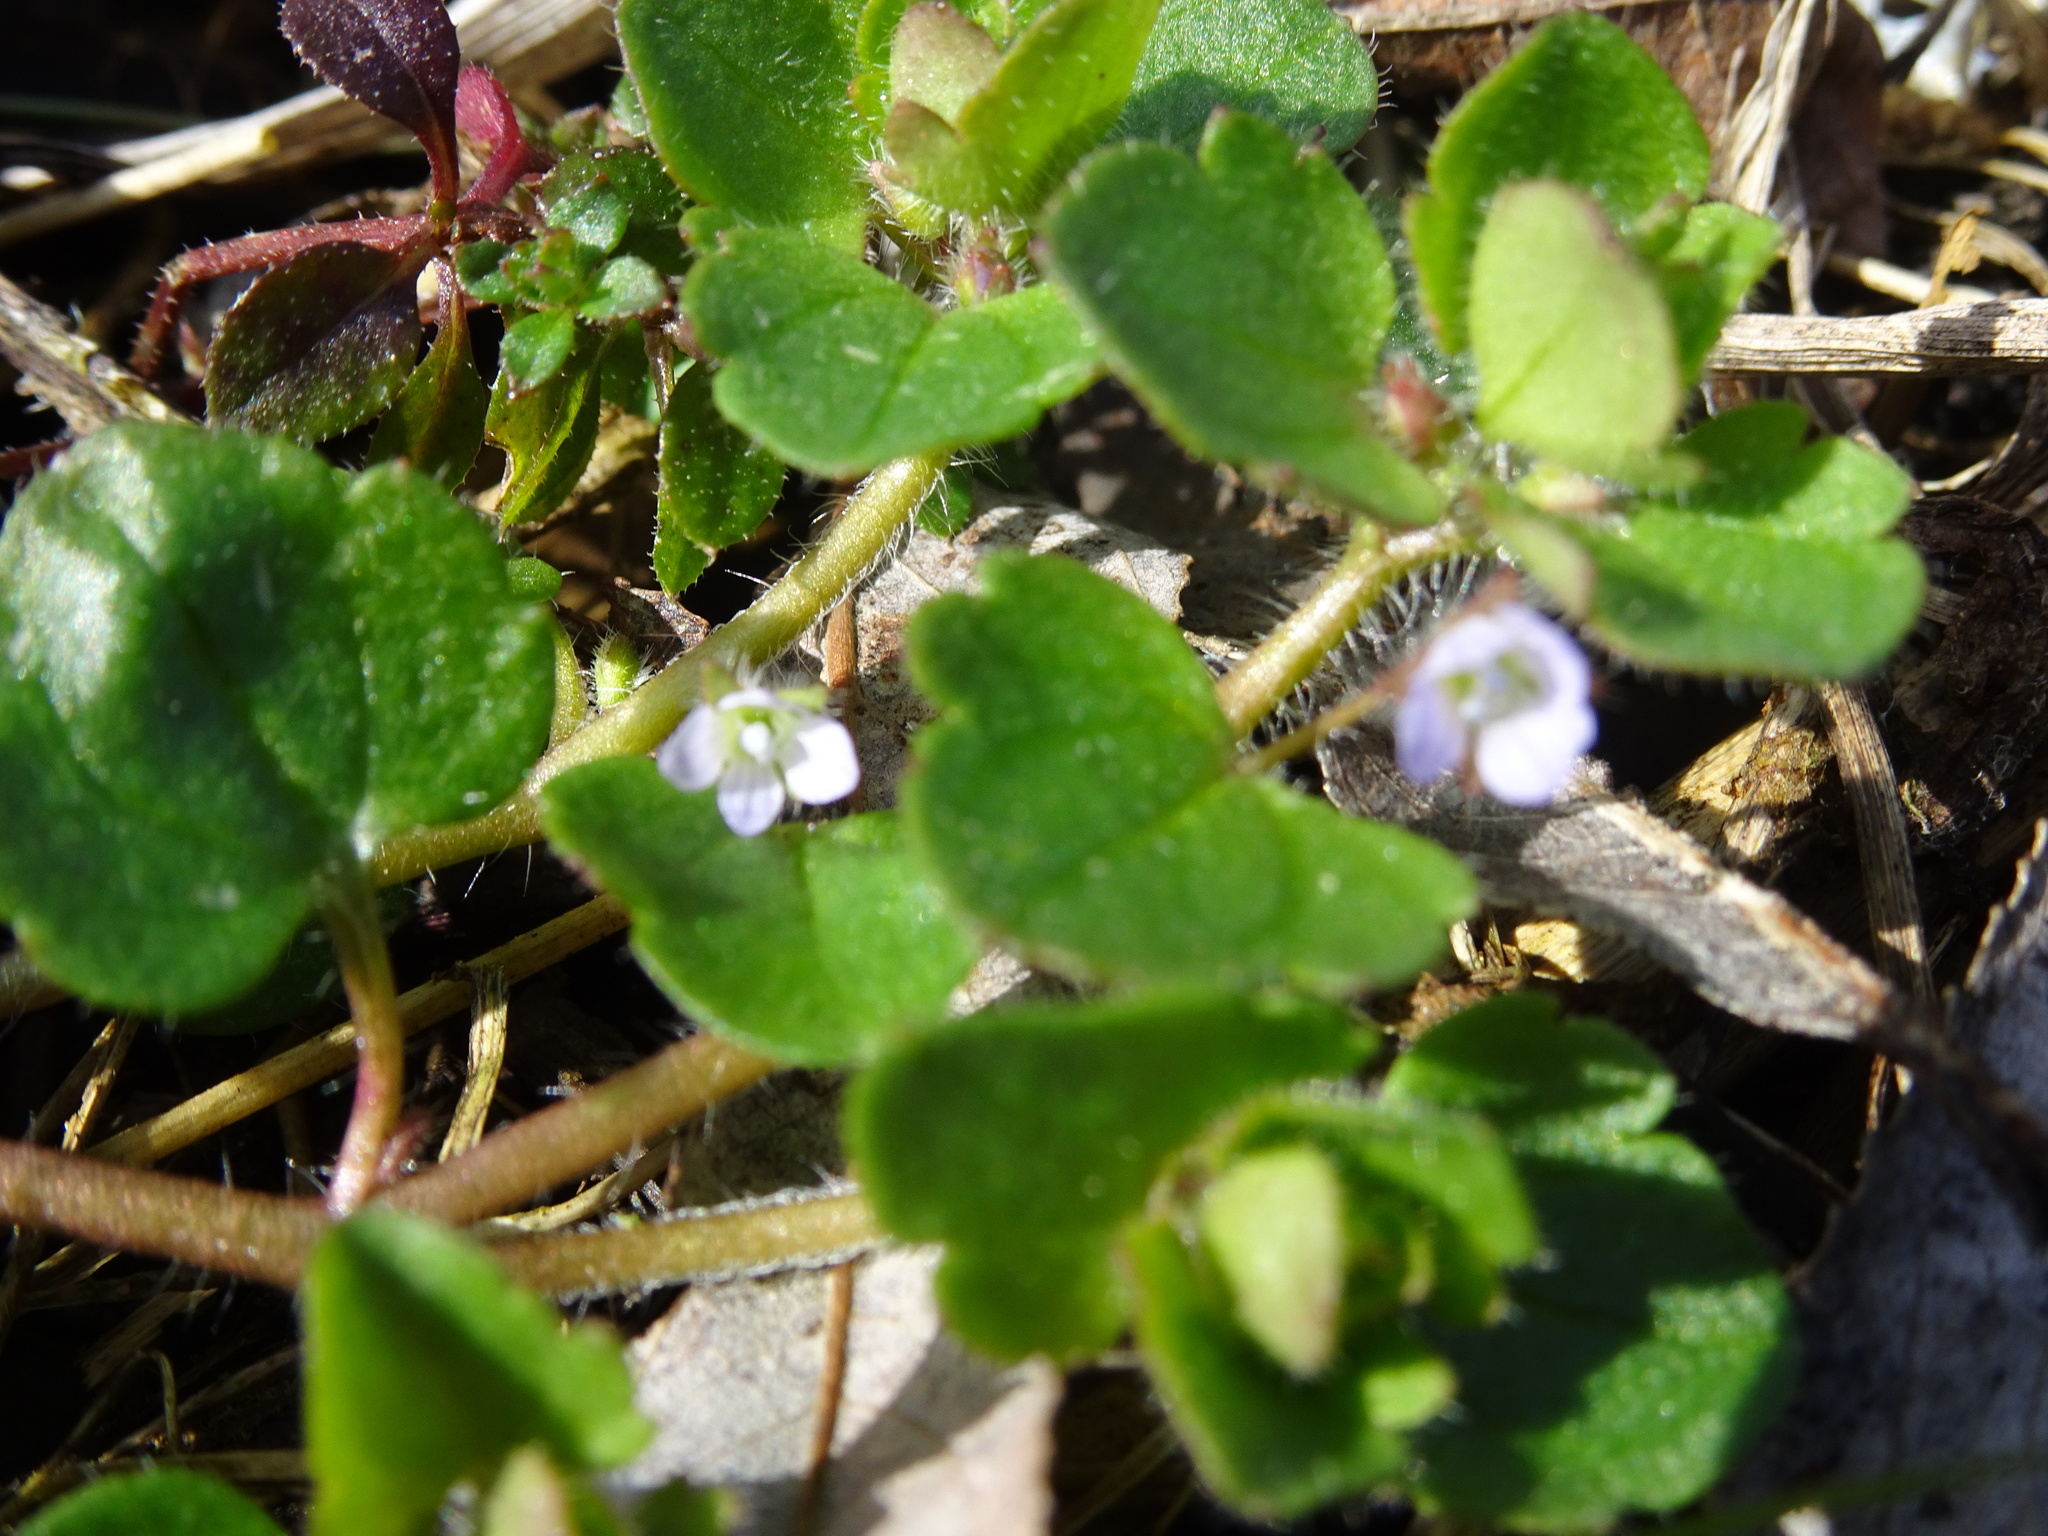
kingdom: Plantae
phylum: Tracheophyta
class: Magnoliopsida
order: Lamiales
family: Plantaginaceae
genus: Veronica
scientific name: Veronica sublobata
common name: False ivy-leaved speedwell
